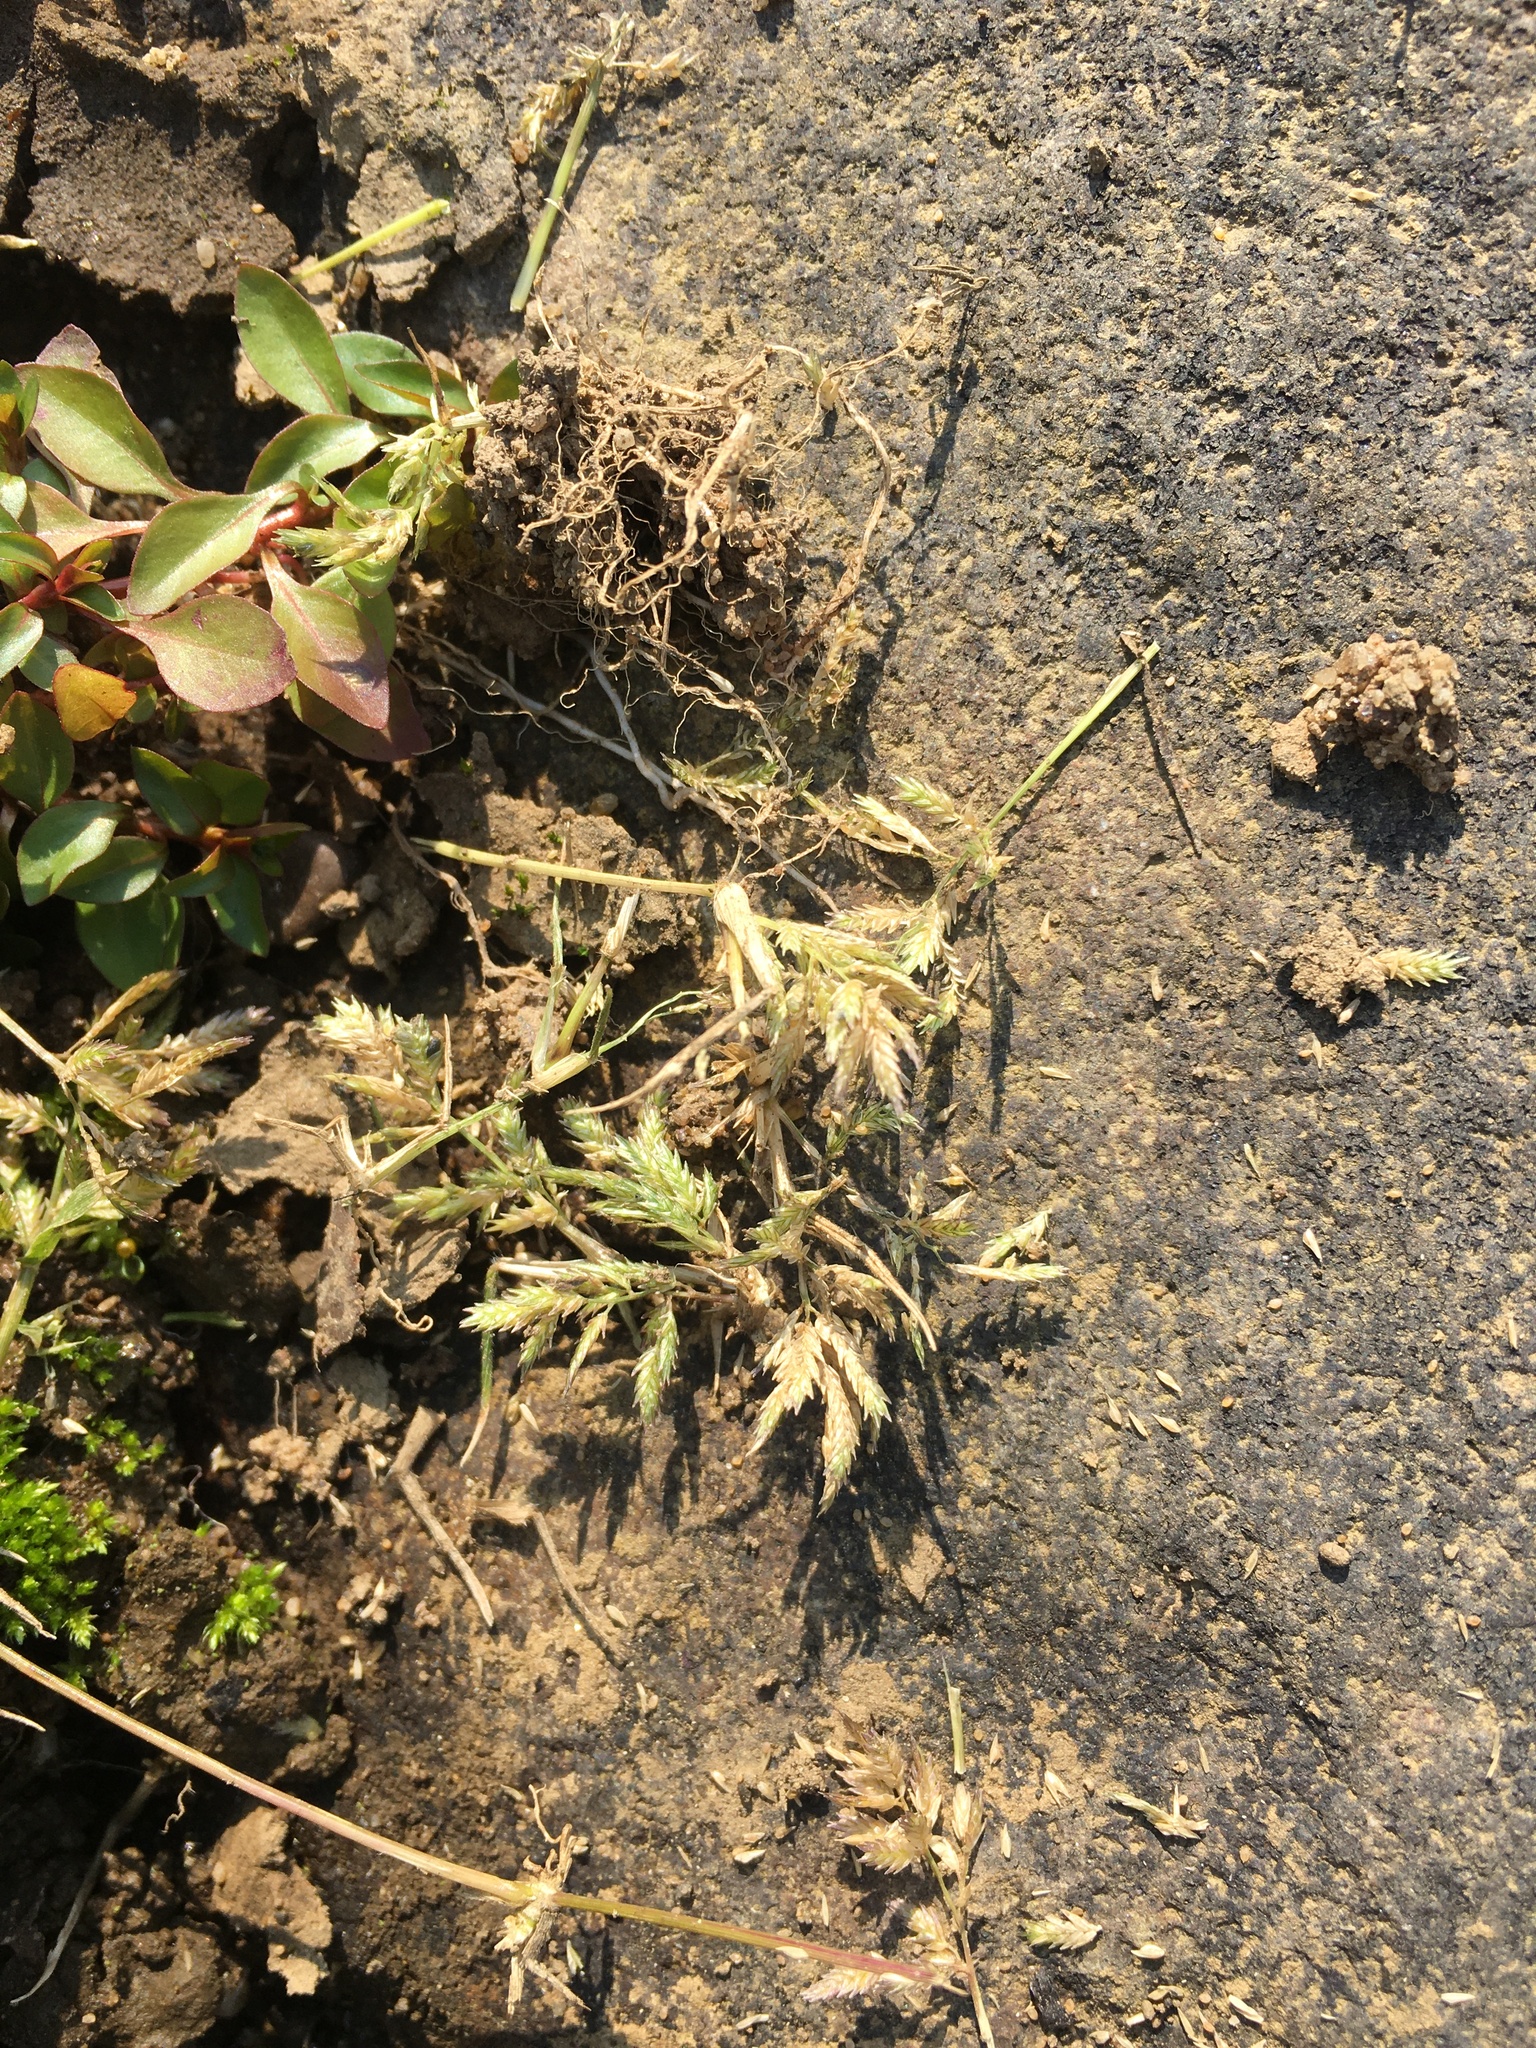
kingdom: Plantae
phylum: Tracheophyta
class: Liliopsida
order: Poales
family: Poaceae
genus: Eragrostis
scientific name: Eragrostis hypnoides
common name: Creeping love grass
